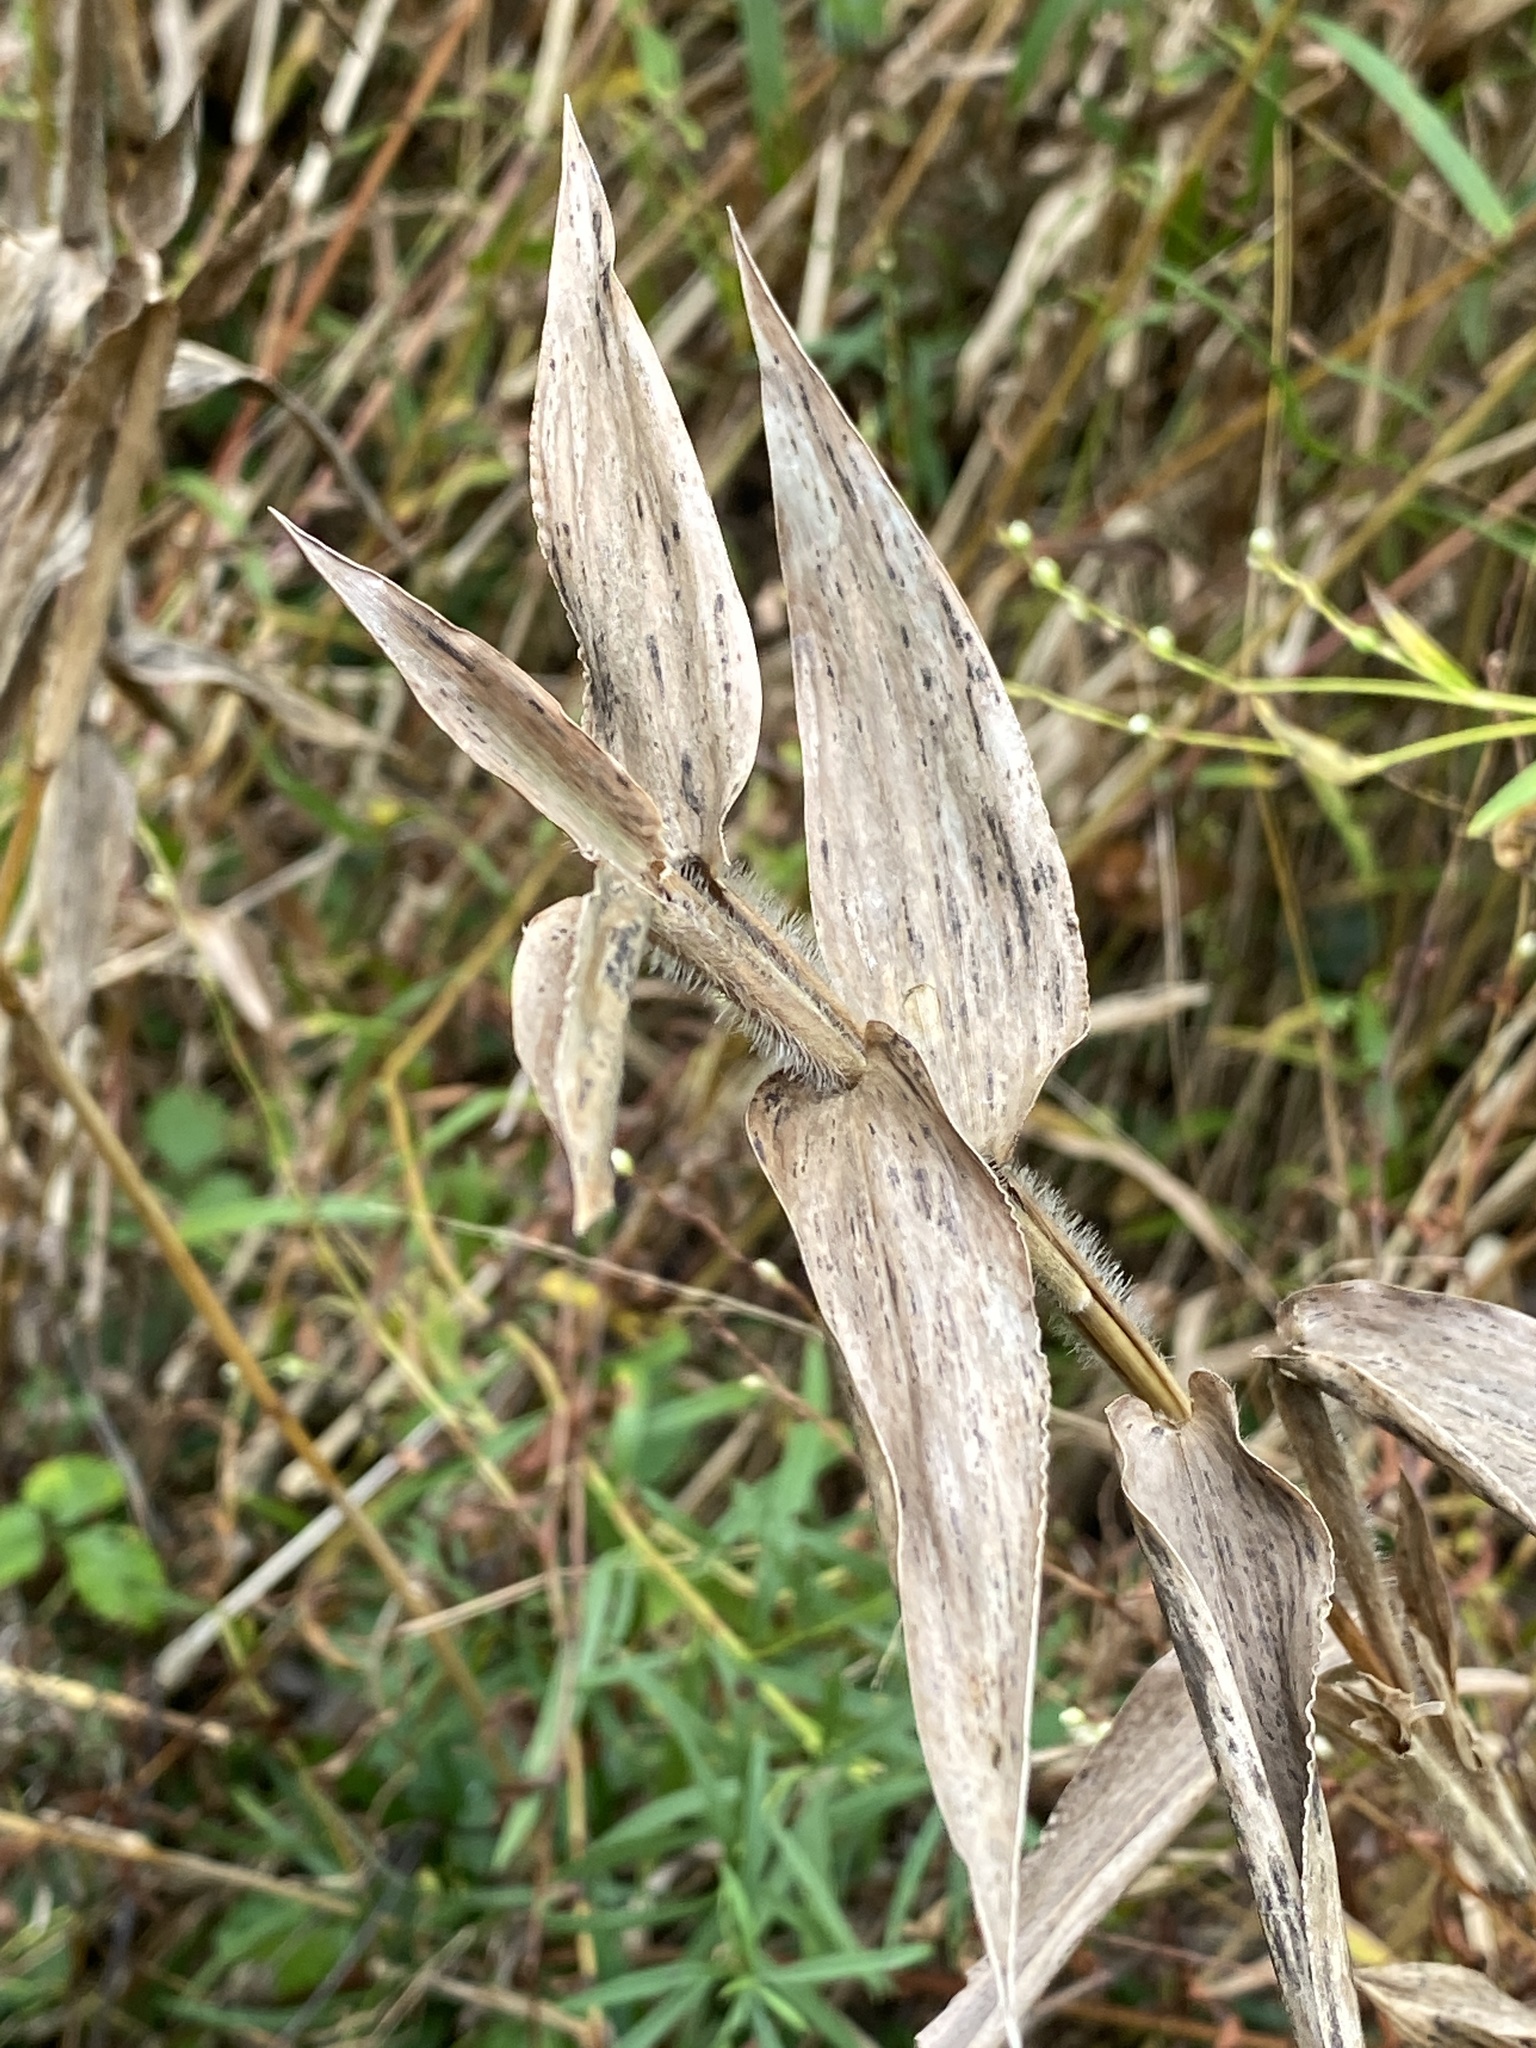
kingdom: Plantae
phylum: Tracheophyta
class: Liliopsida
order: Poales
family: Poaceae
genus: Dichanthelium
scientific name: Dichanthelium clandestinum
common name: Deer-tongue grass
